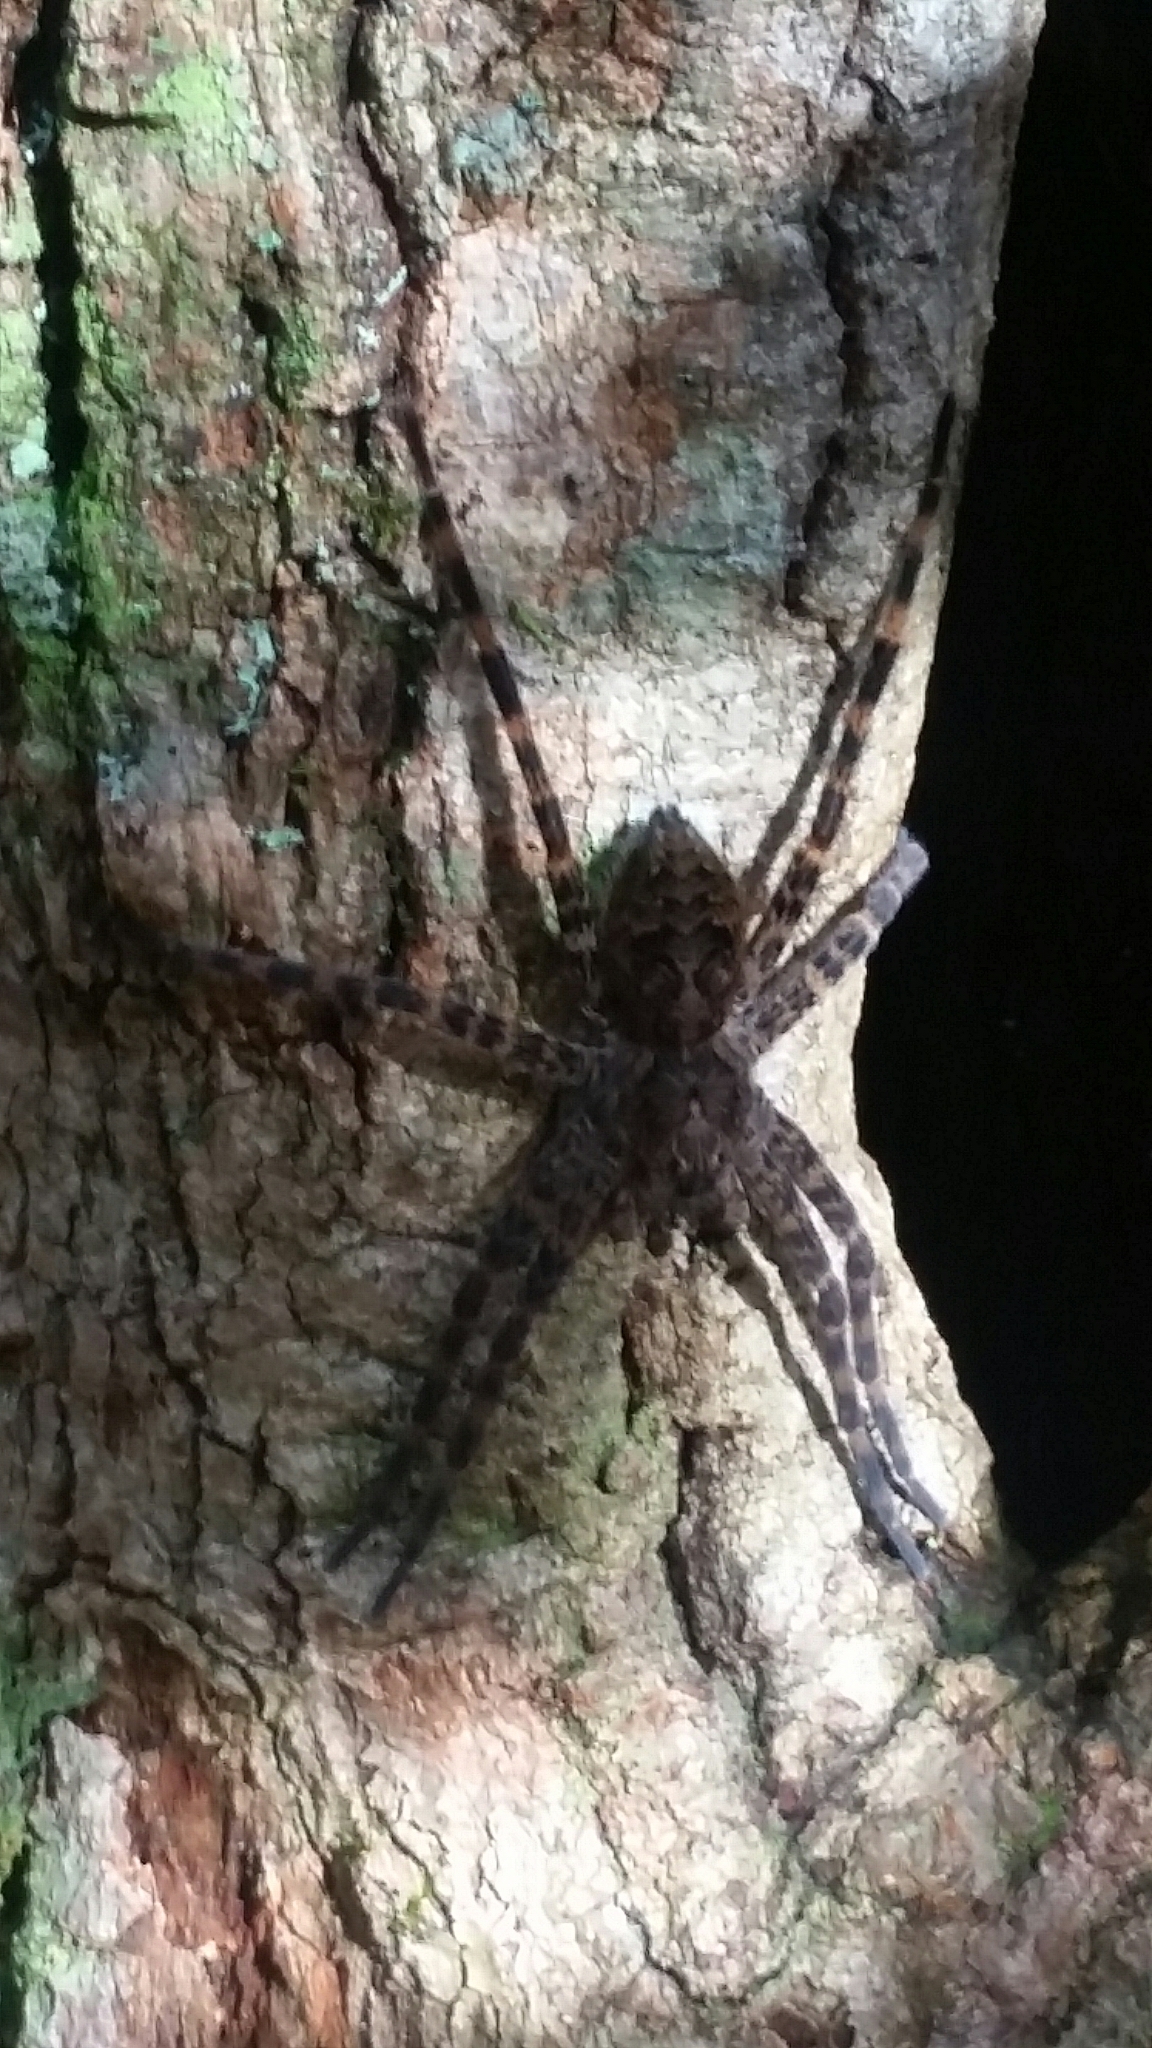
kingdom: Animalia
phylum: Arthropoda
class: Arachnida
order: Araneae
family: Pisauridae
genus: Dolomedes
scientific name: Dolomedes tenebrosus
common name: Dark fishing spider
